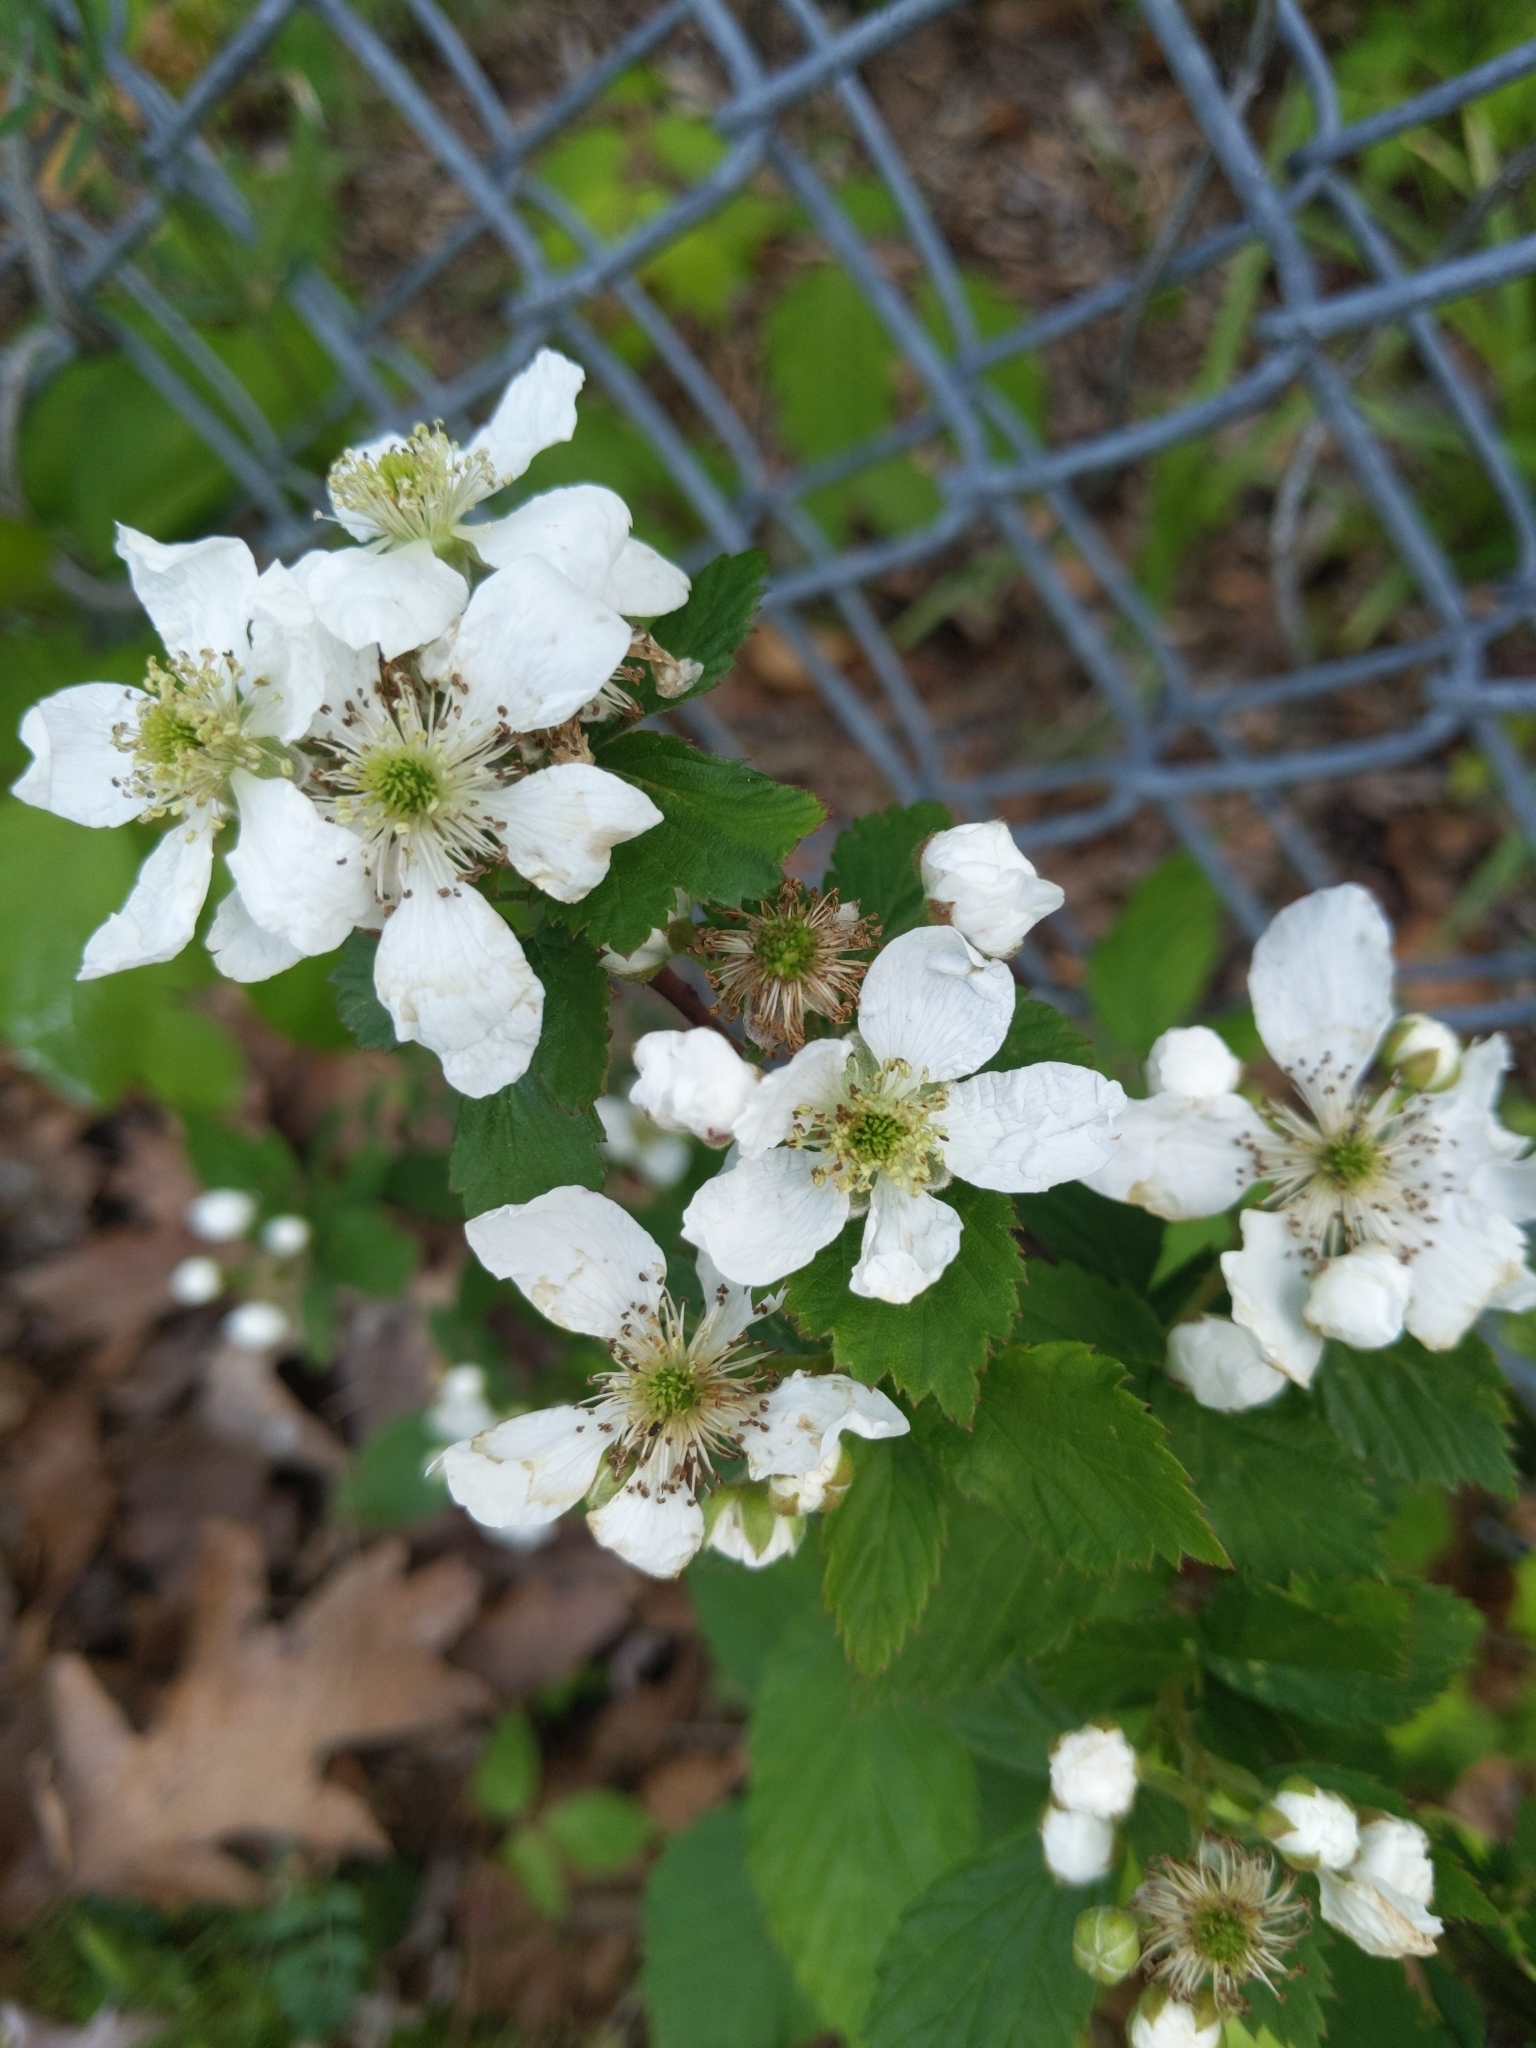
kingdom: Plantae
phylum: Tracheophyta
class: Magnoliopsida
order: Rosales
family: Rosaceae
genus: Rubus
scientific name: Rubus flagellaris
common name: American dewberry
